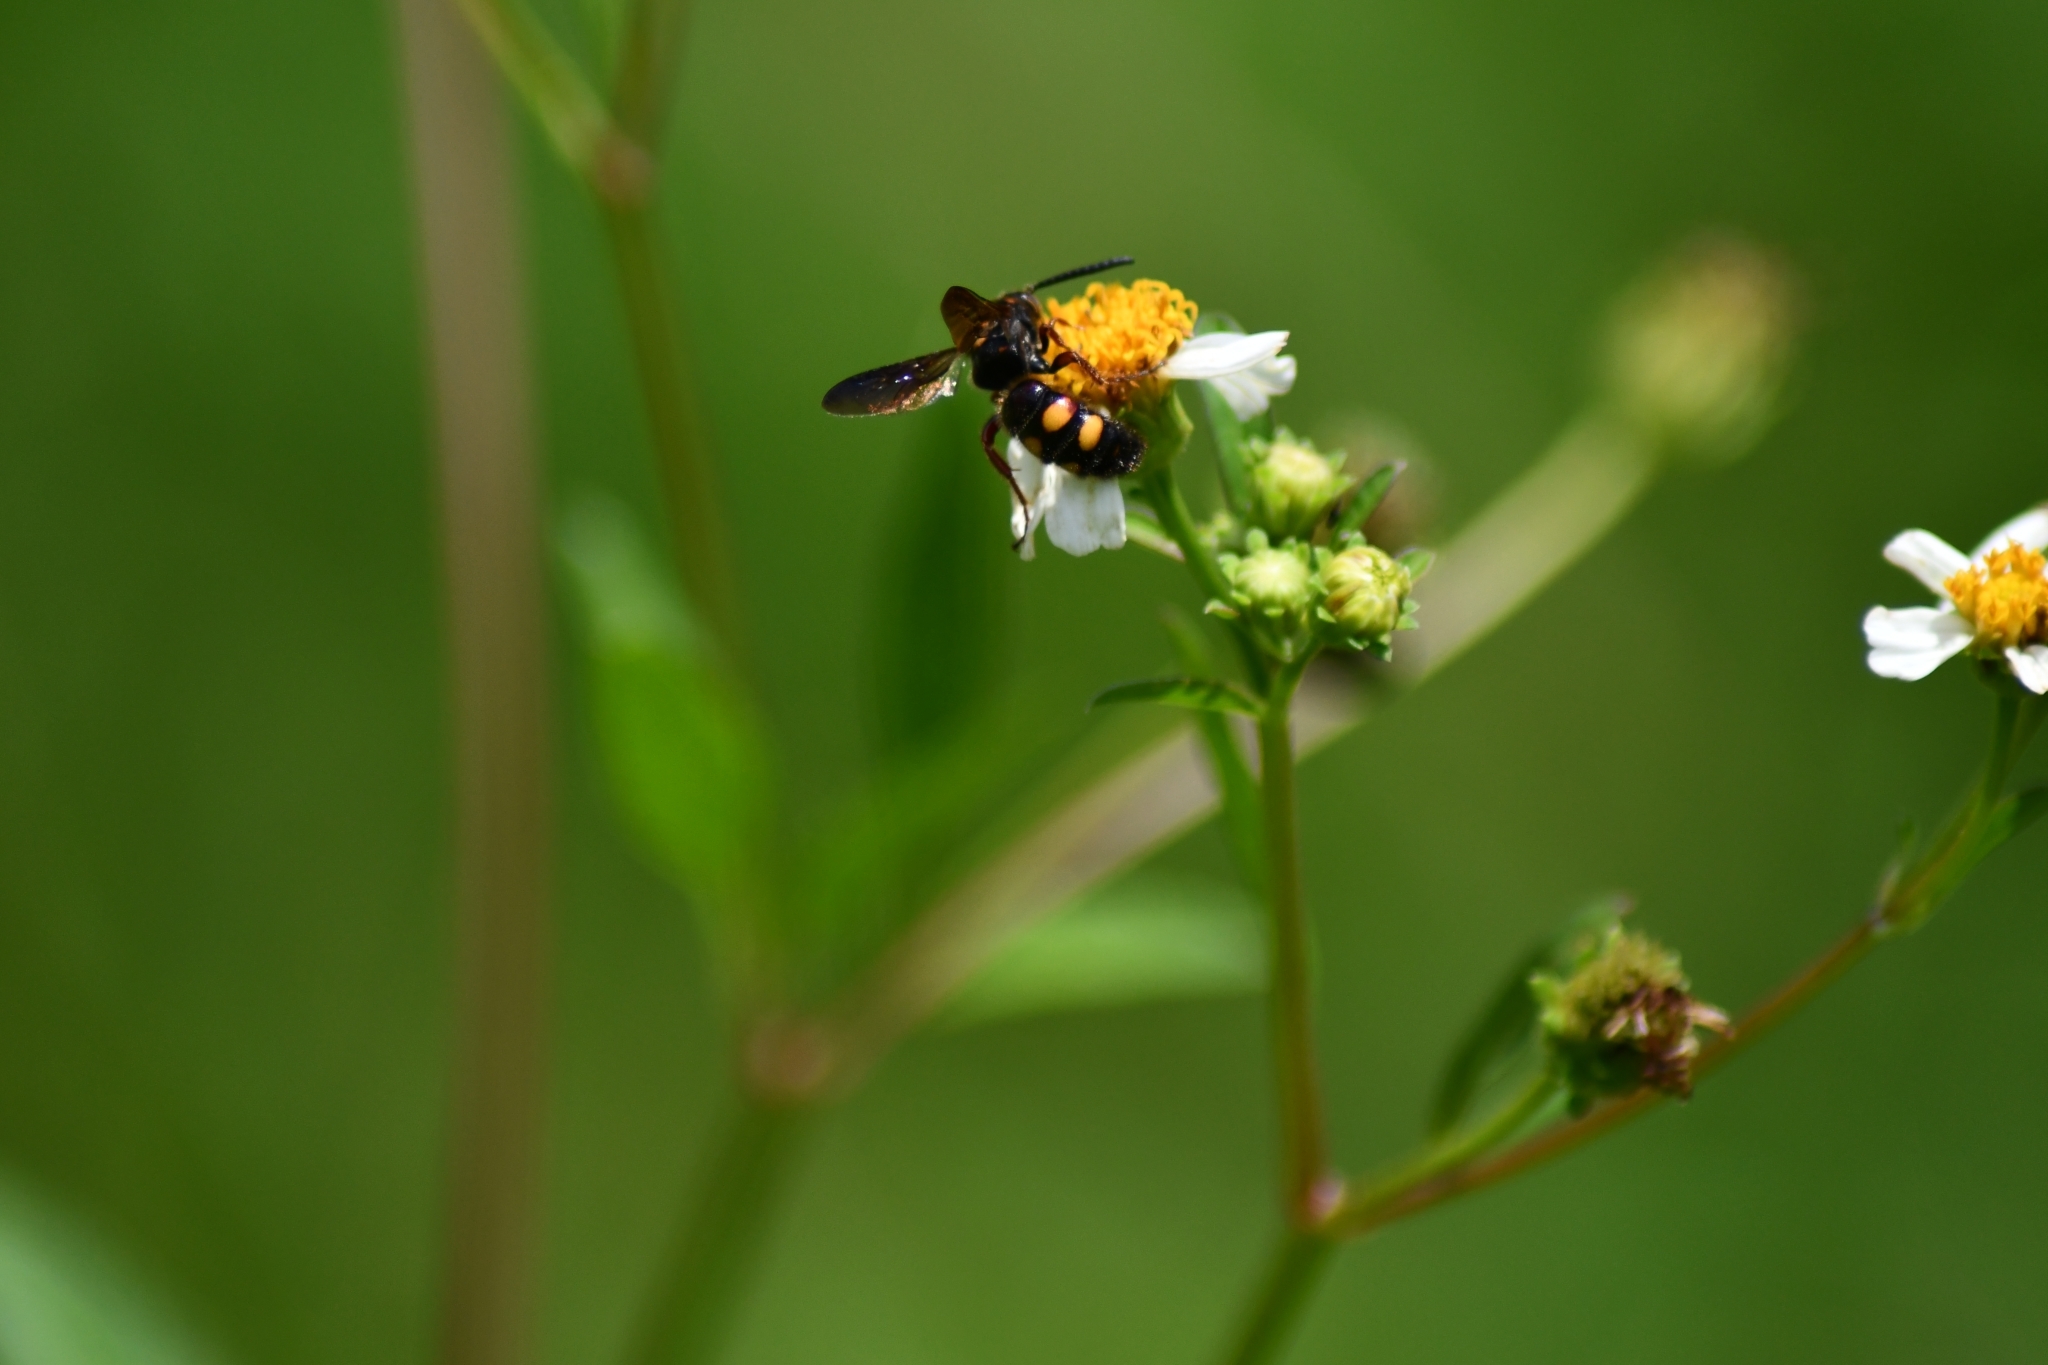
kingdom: Animalia
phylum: Arthropoda
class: Insecta
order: Hymenoptera
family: Scoliidae
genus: Scolia
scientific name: Scolia nobilitata
